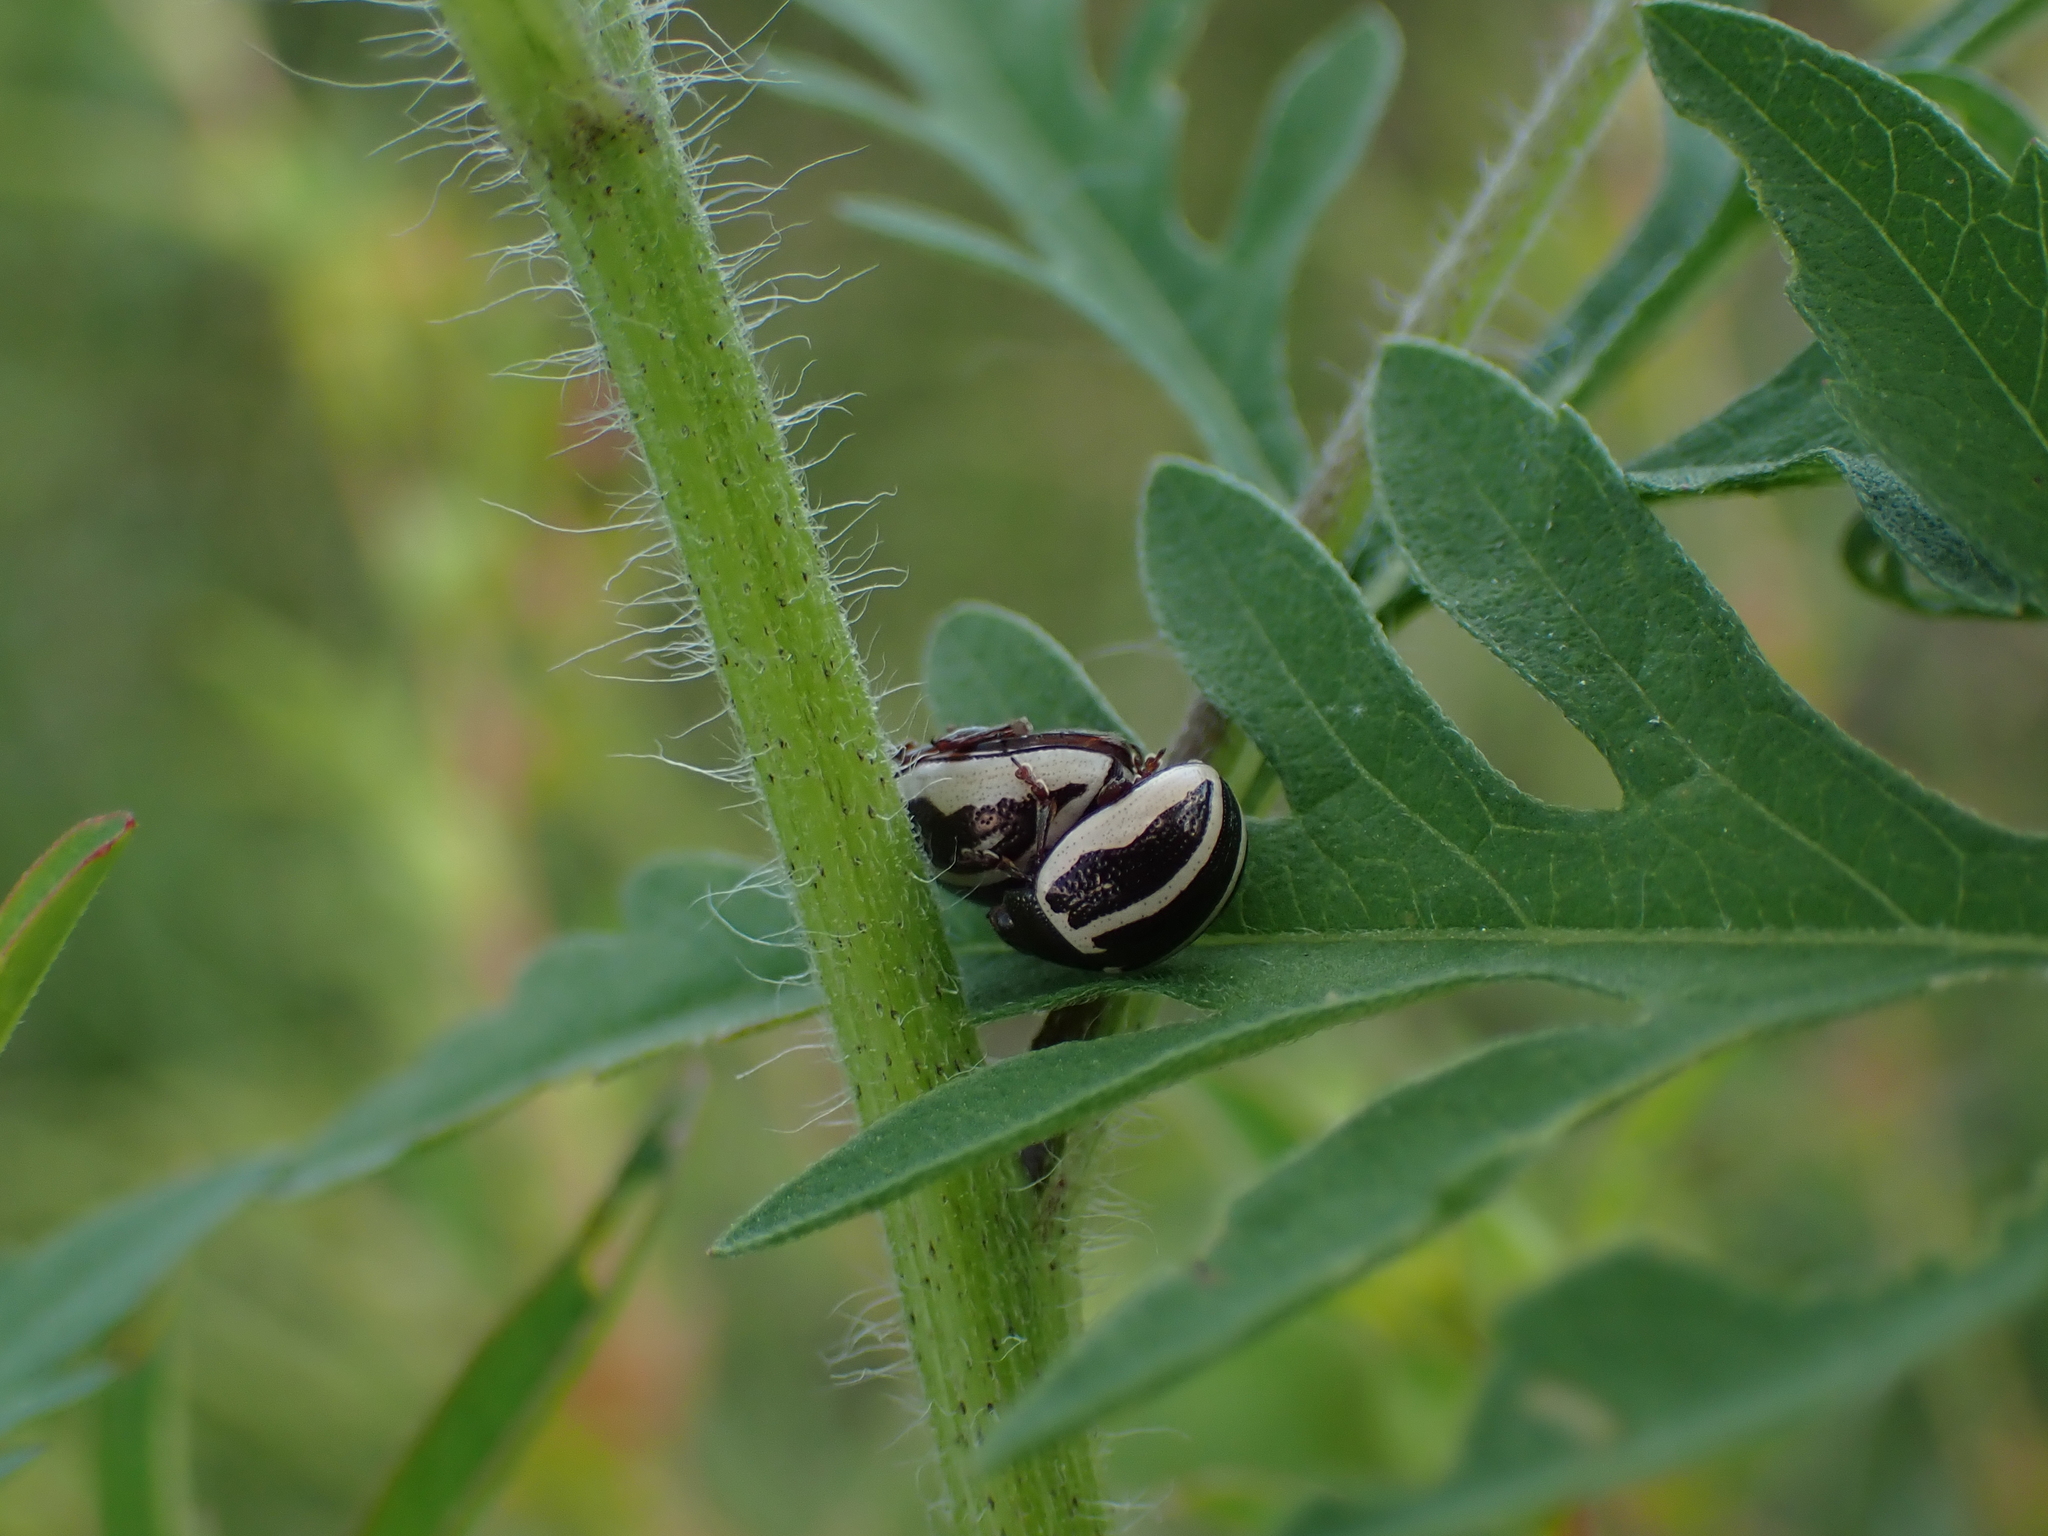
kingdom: Animalia
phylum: Arthropoda
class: Insecta
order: Coleoptera
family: Chrysomelidae
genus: Calligrapha
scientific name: Calligrapha
